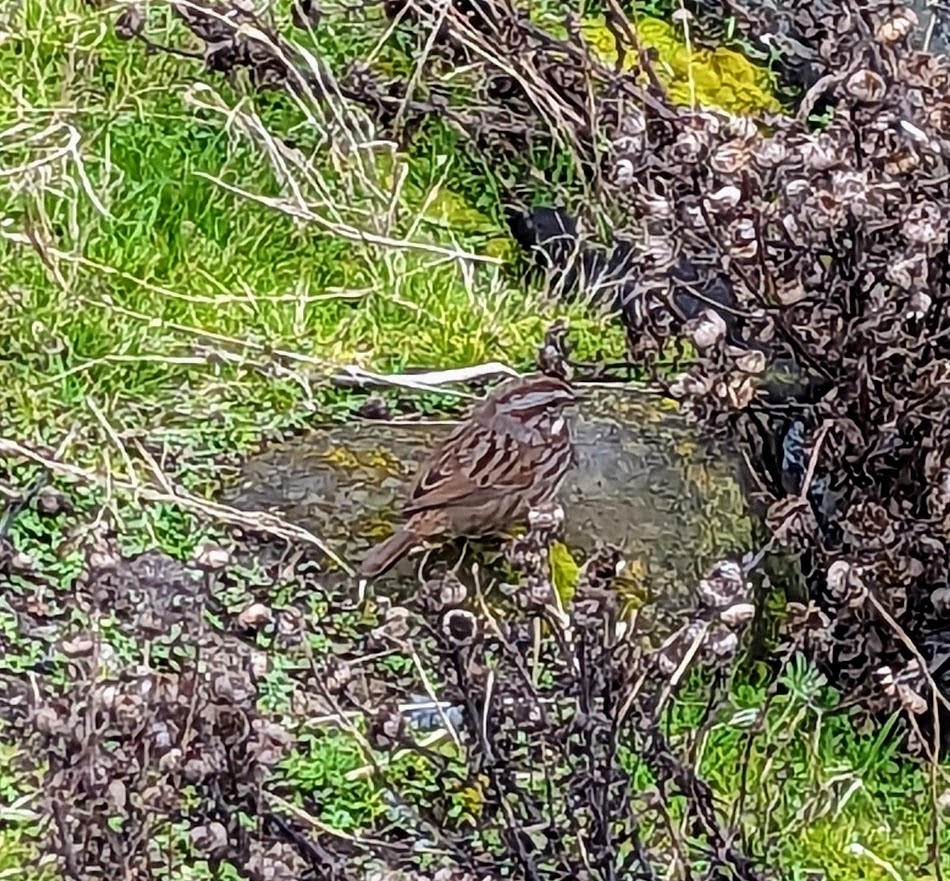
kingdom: Animalia
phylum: Chordata
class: Aves
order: Passeriformes
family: Passerellidae
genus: Melospiza
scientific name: Melospiza melodia
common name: Song sparrow
